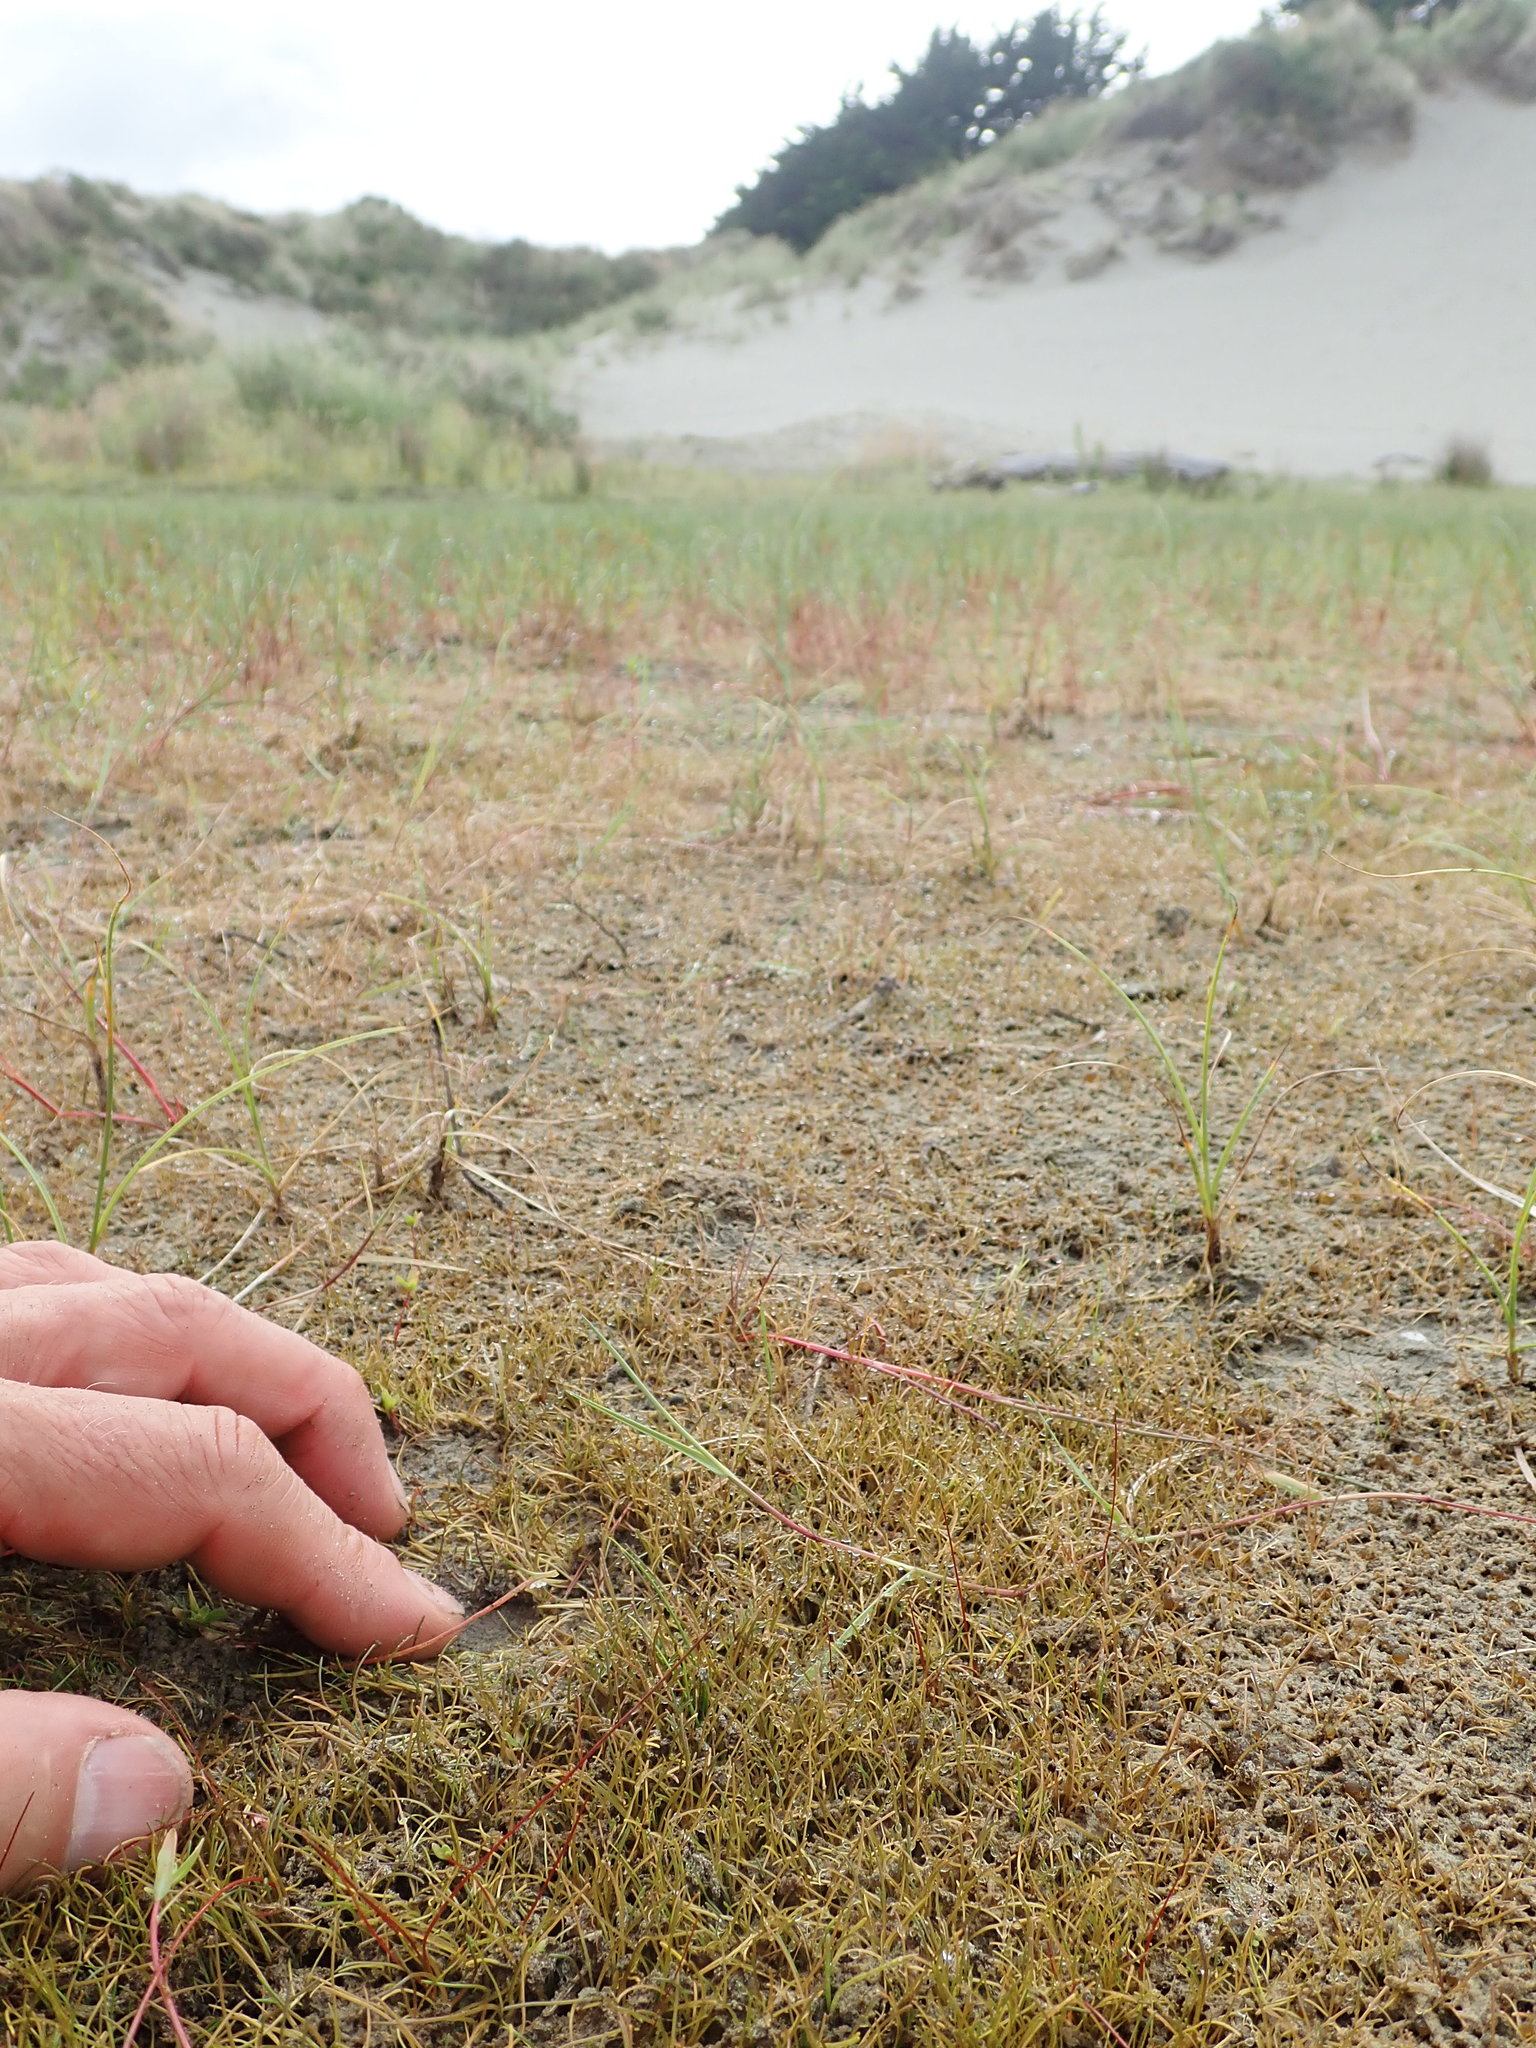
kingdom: Plantae
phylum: Tracheophyta
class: Magnoliopsida
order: Lamiales
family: Scrophulariaceae
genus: Limosella
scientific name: Limosella australis
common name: Welsh mudwort
